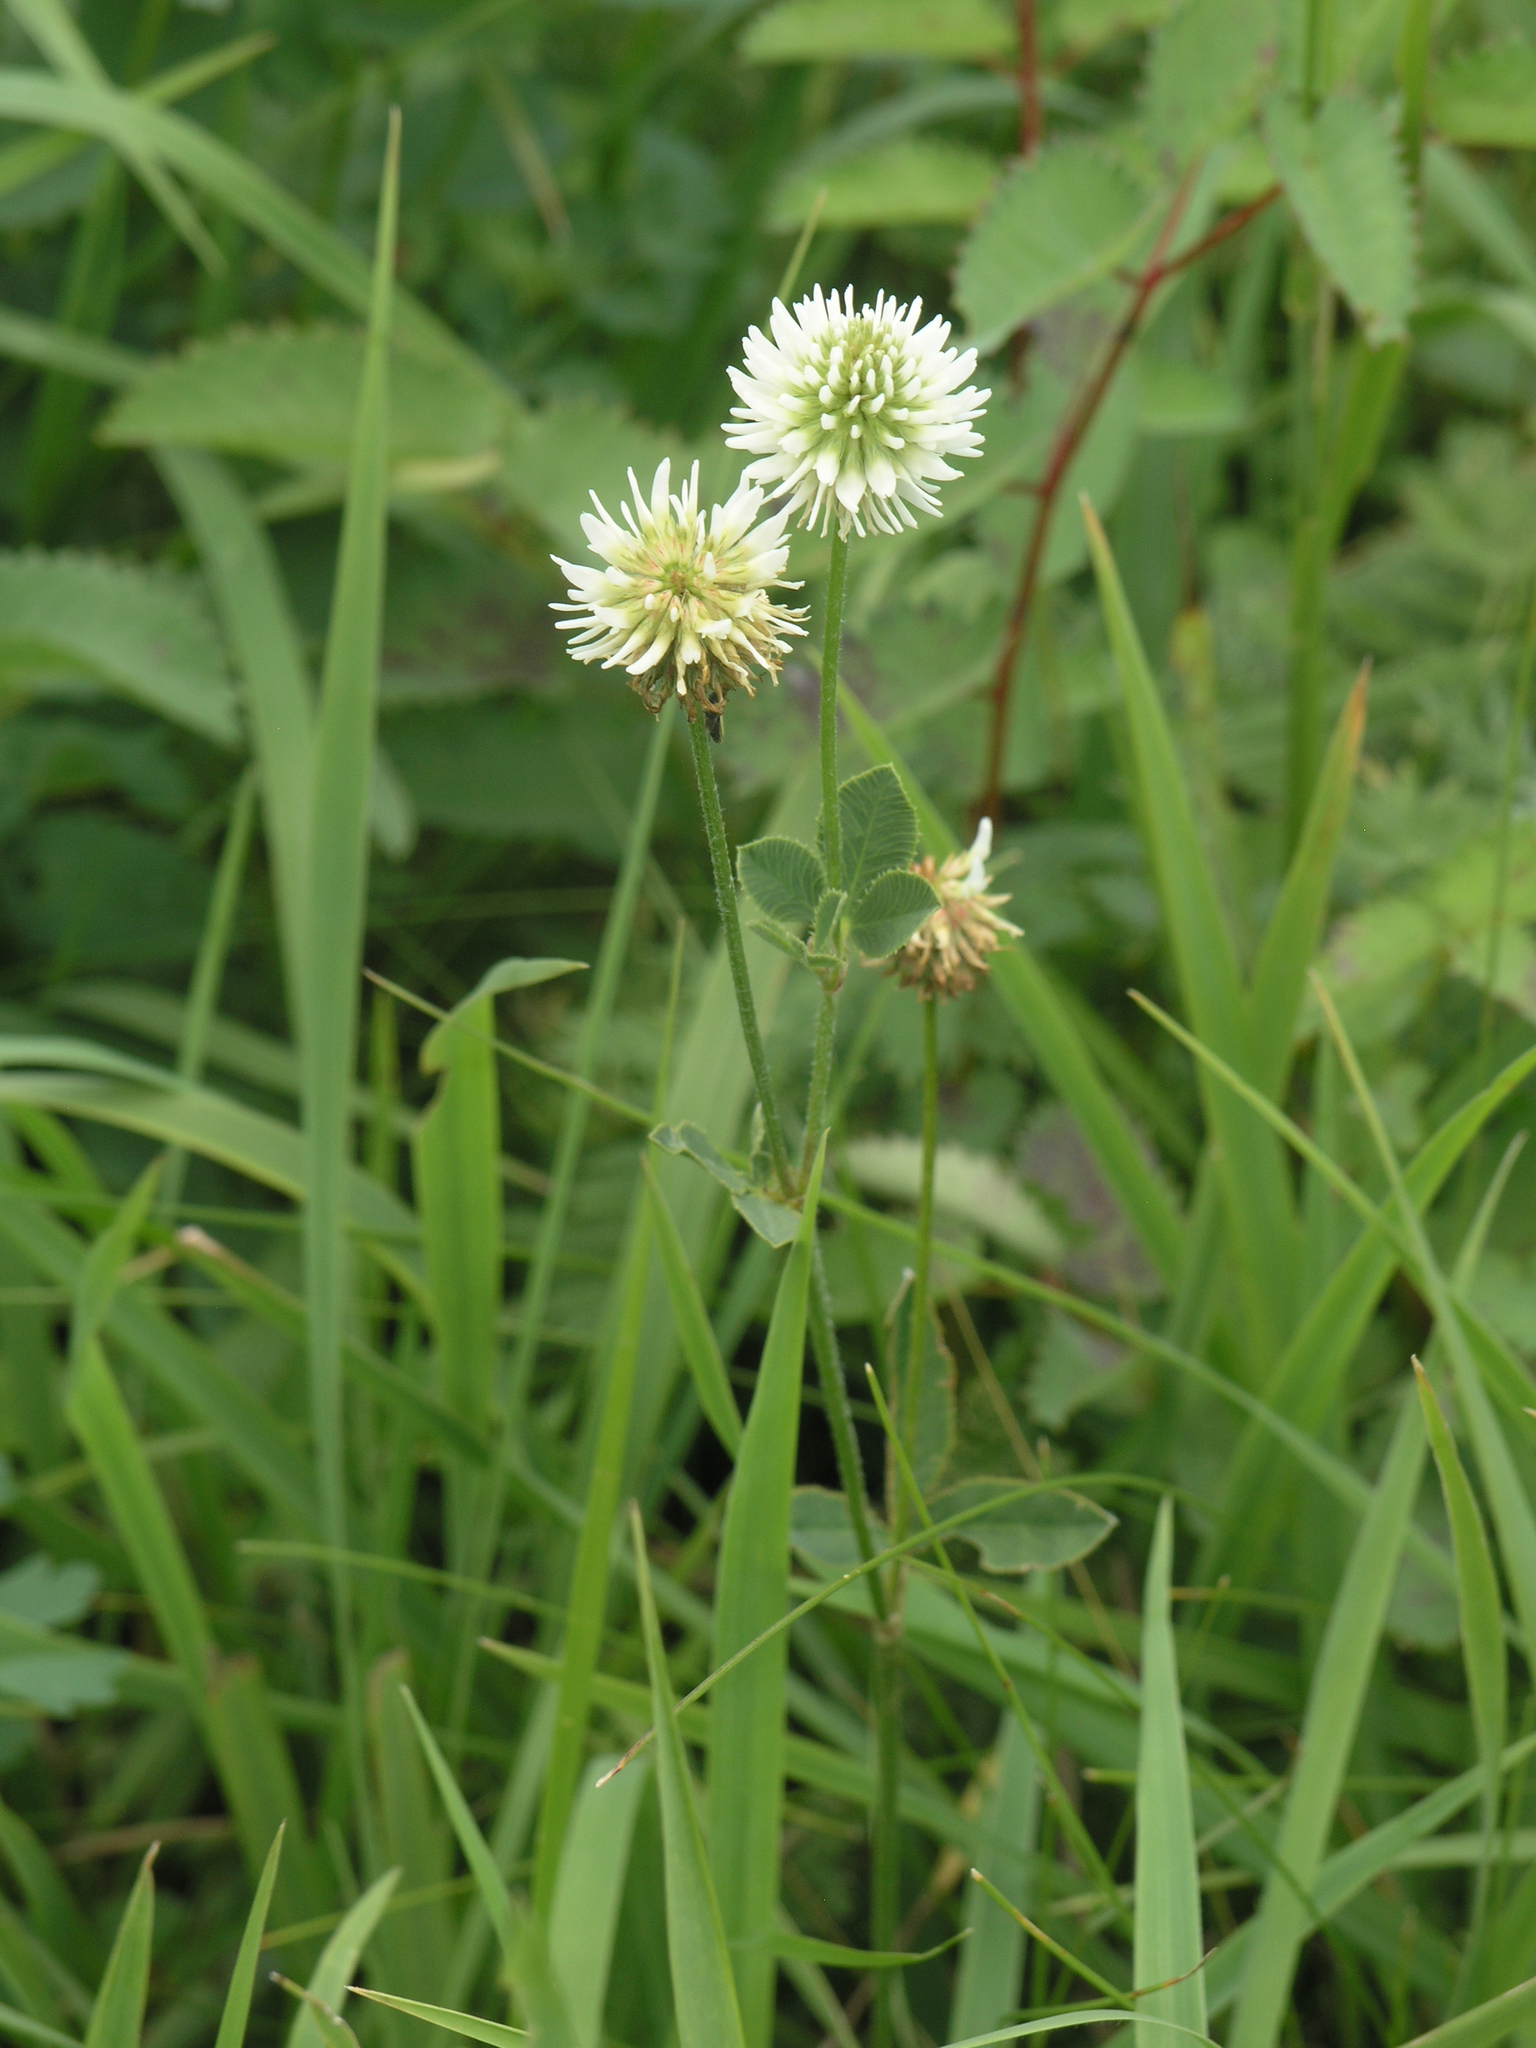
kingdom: Plantae
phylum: Tracheophyta
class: Magnoliopsida
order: Fabales
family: Fabaceae
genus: Trifolium
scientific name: Trifolium montanum
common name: Mountain clover
